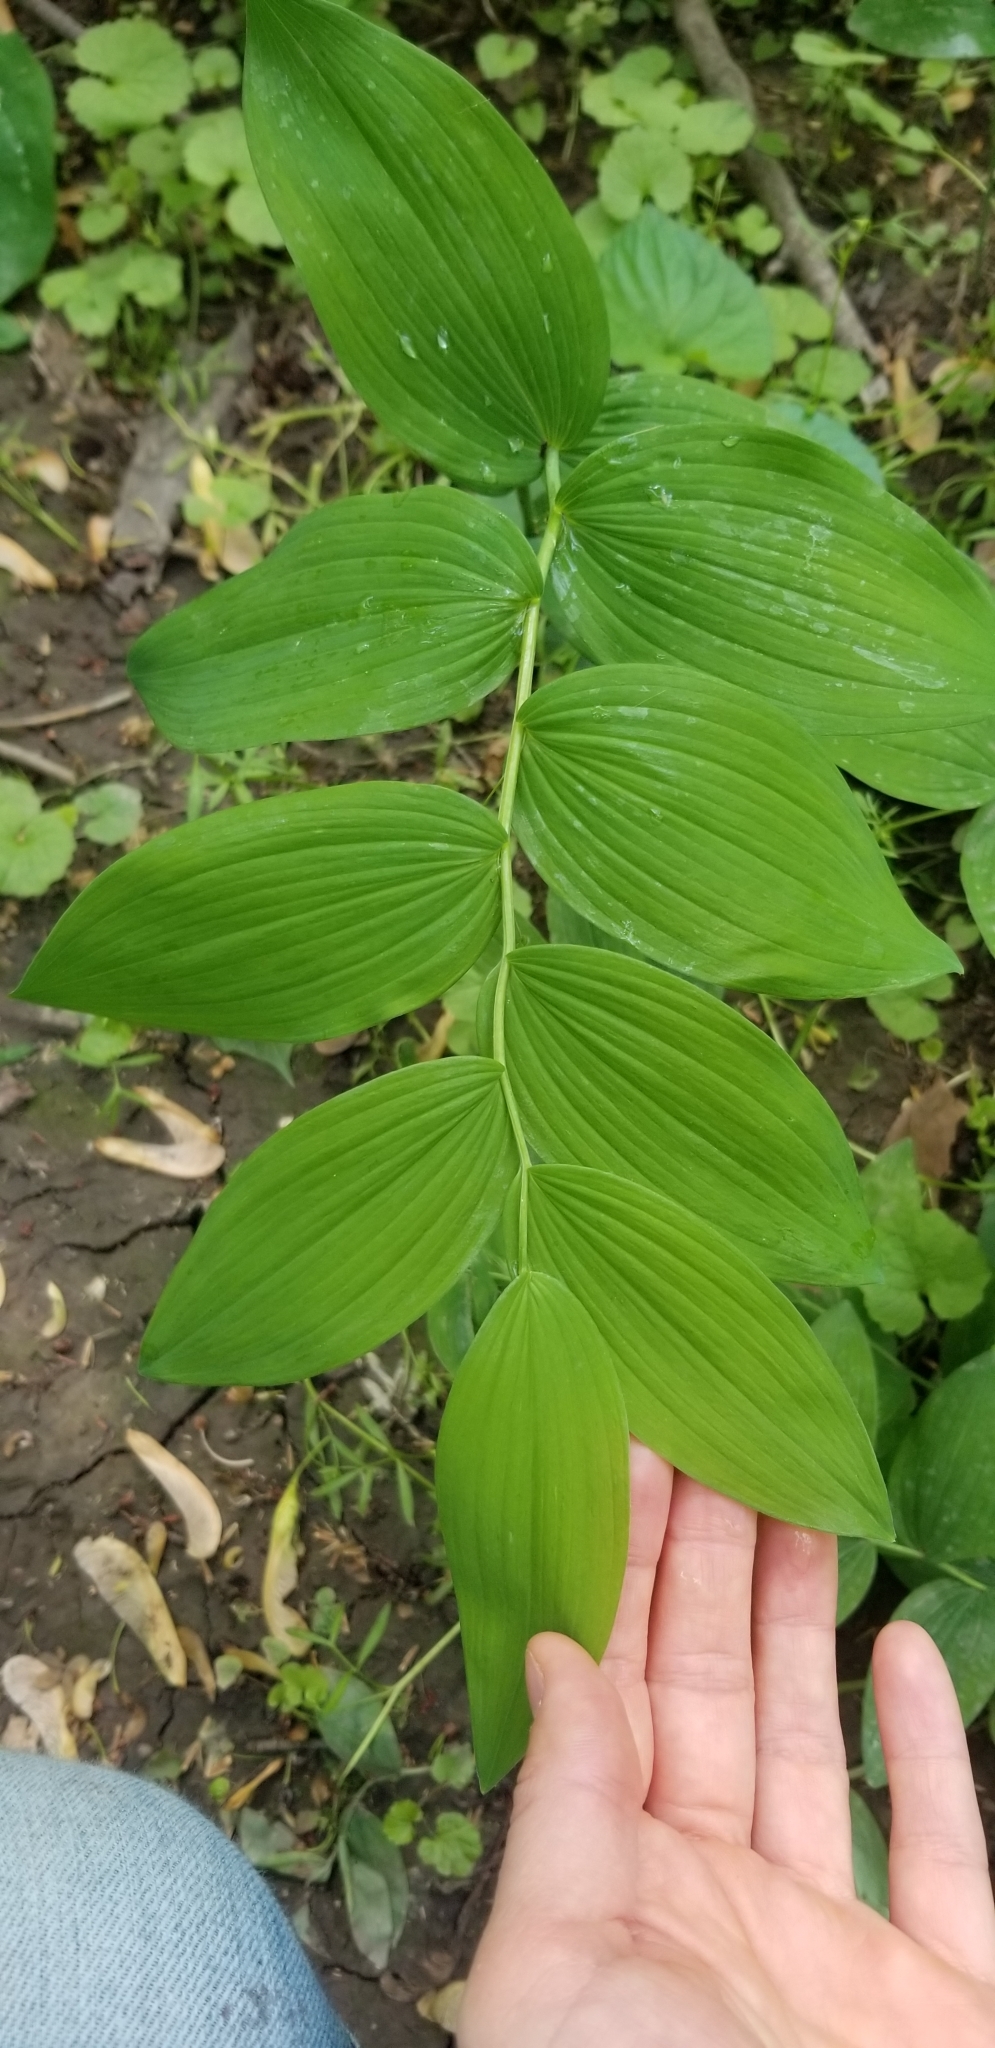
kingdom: Plantae
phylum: Tracheophyta
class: Liliopsida
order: Asparagales
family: Asparagaceae
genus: Polygonatum
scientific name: Polygonatum biflorum
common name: American solomon's-seal
